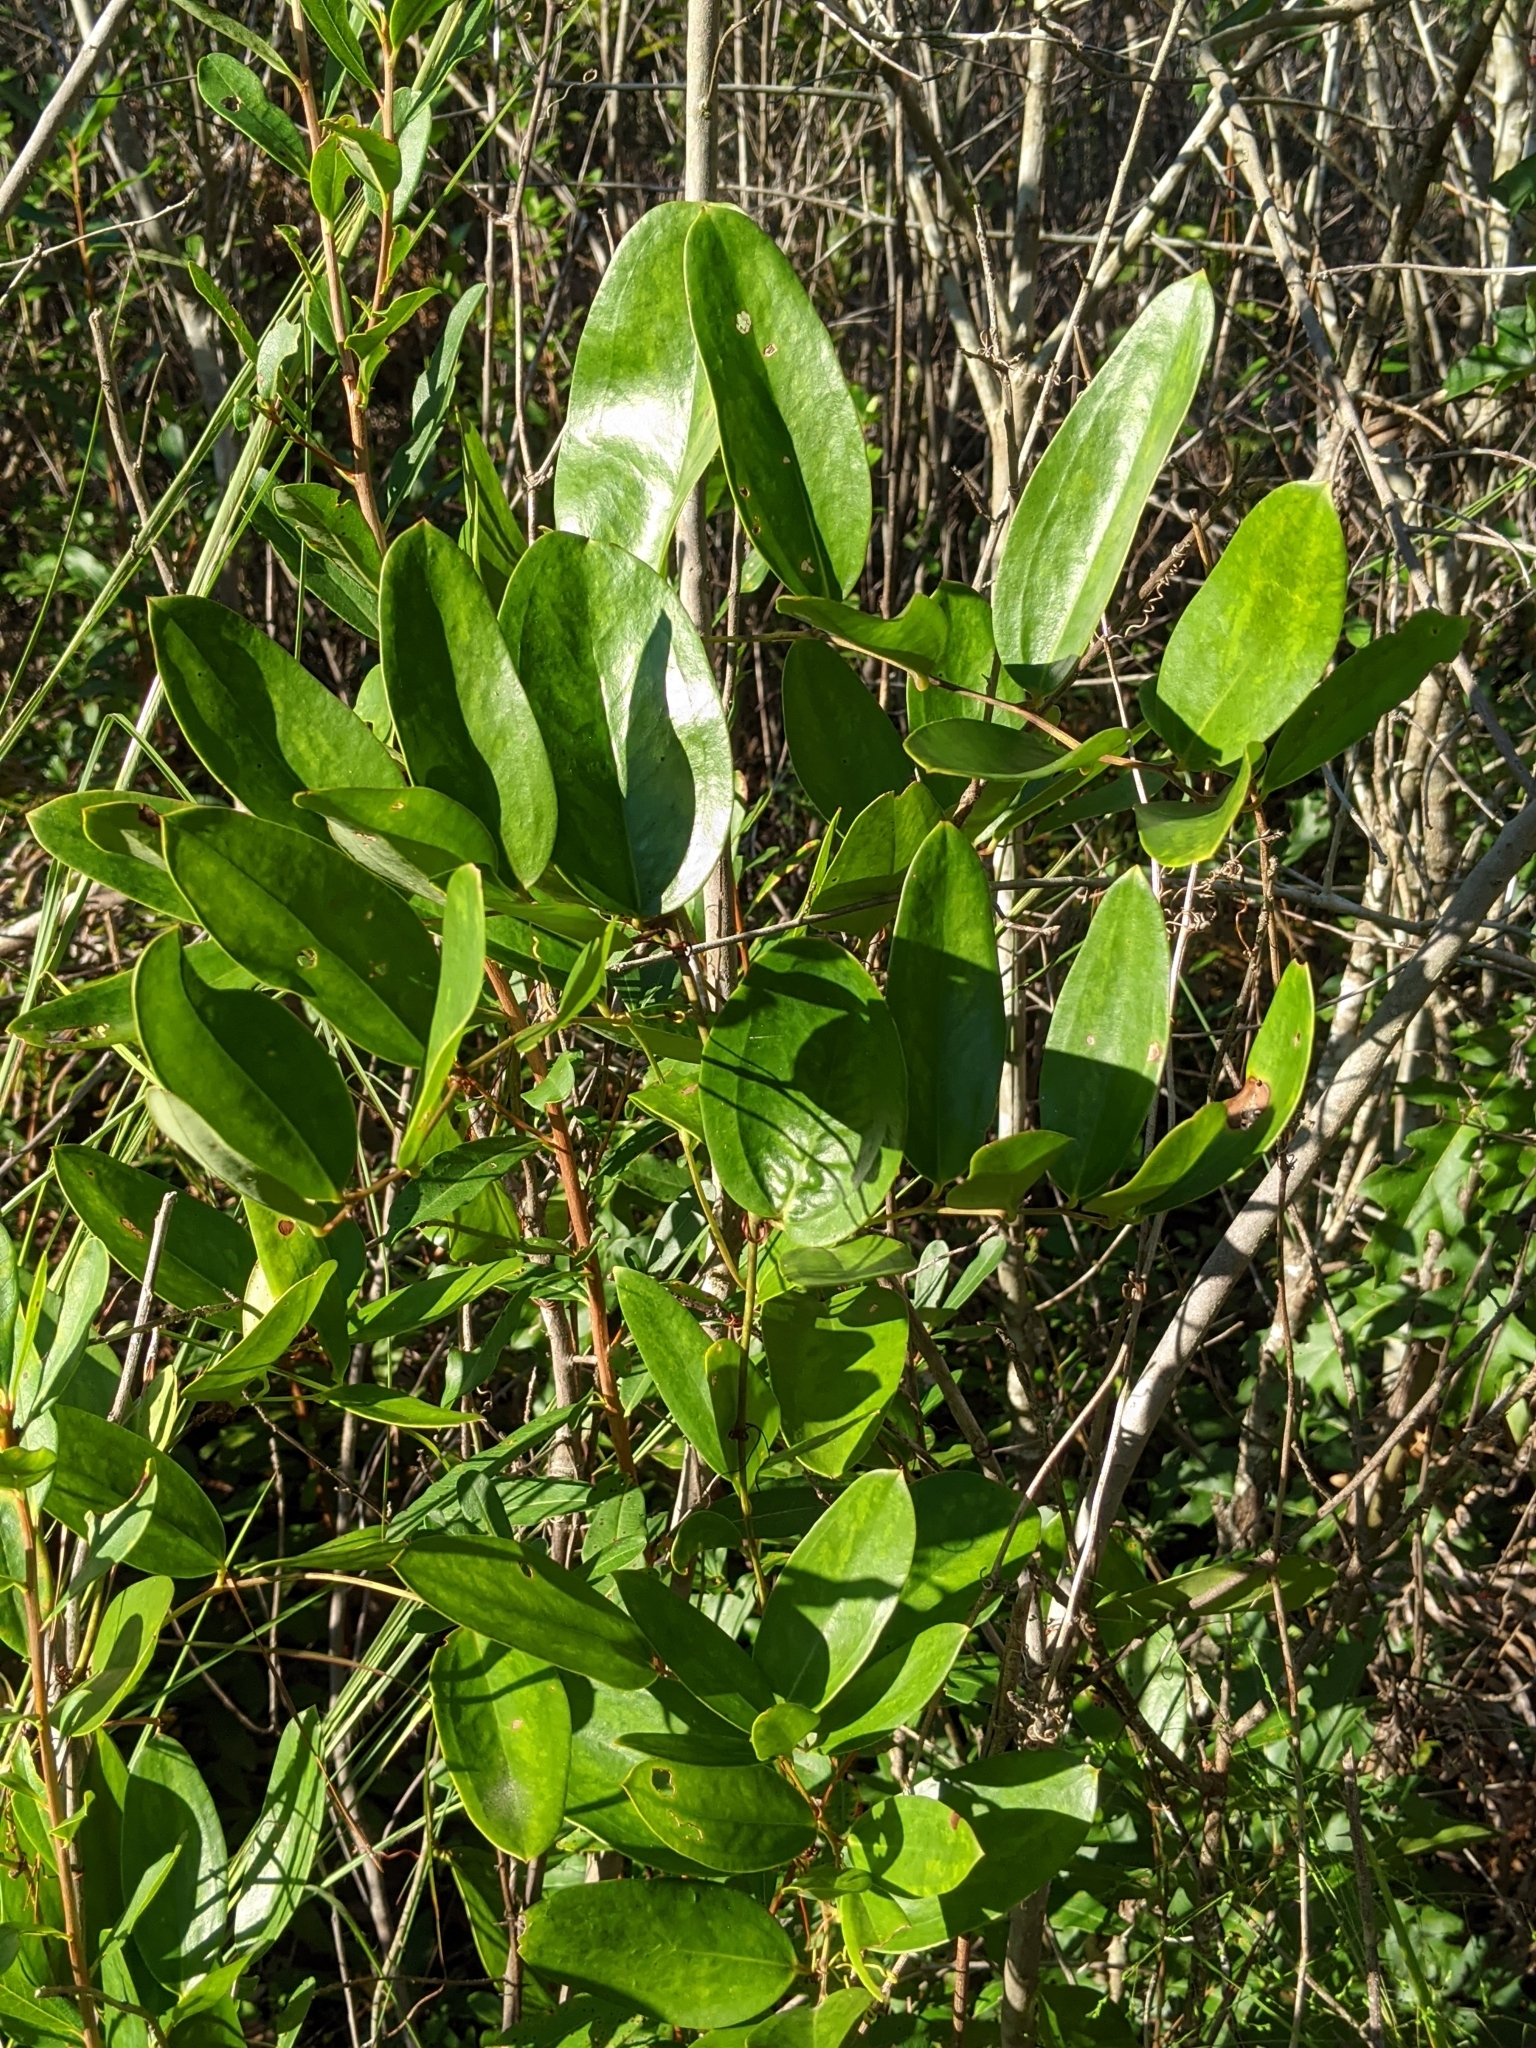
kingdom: Plantae
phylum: Tracheophyta
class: Liliopsida
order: Liliales
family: Smilacaceae
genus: Smilax
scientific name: Smilax laurifolia
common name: Bamboovine
